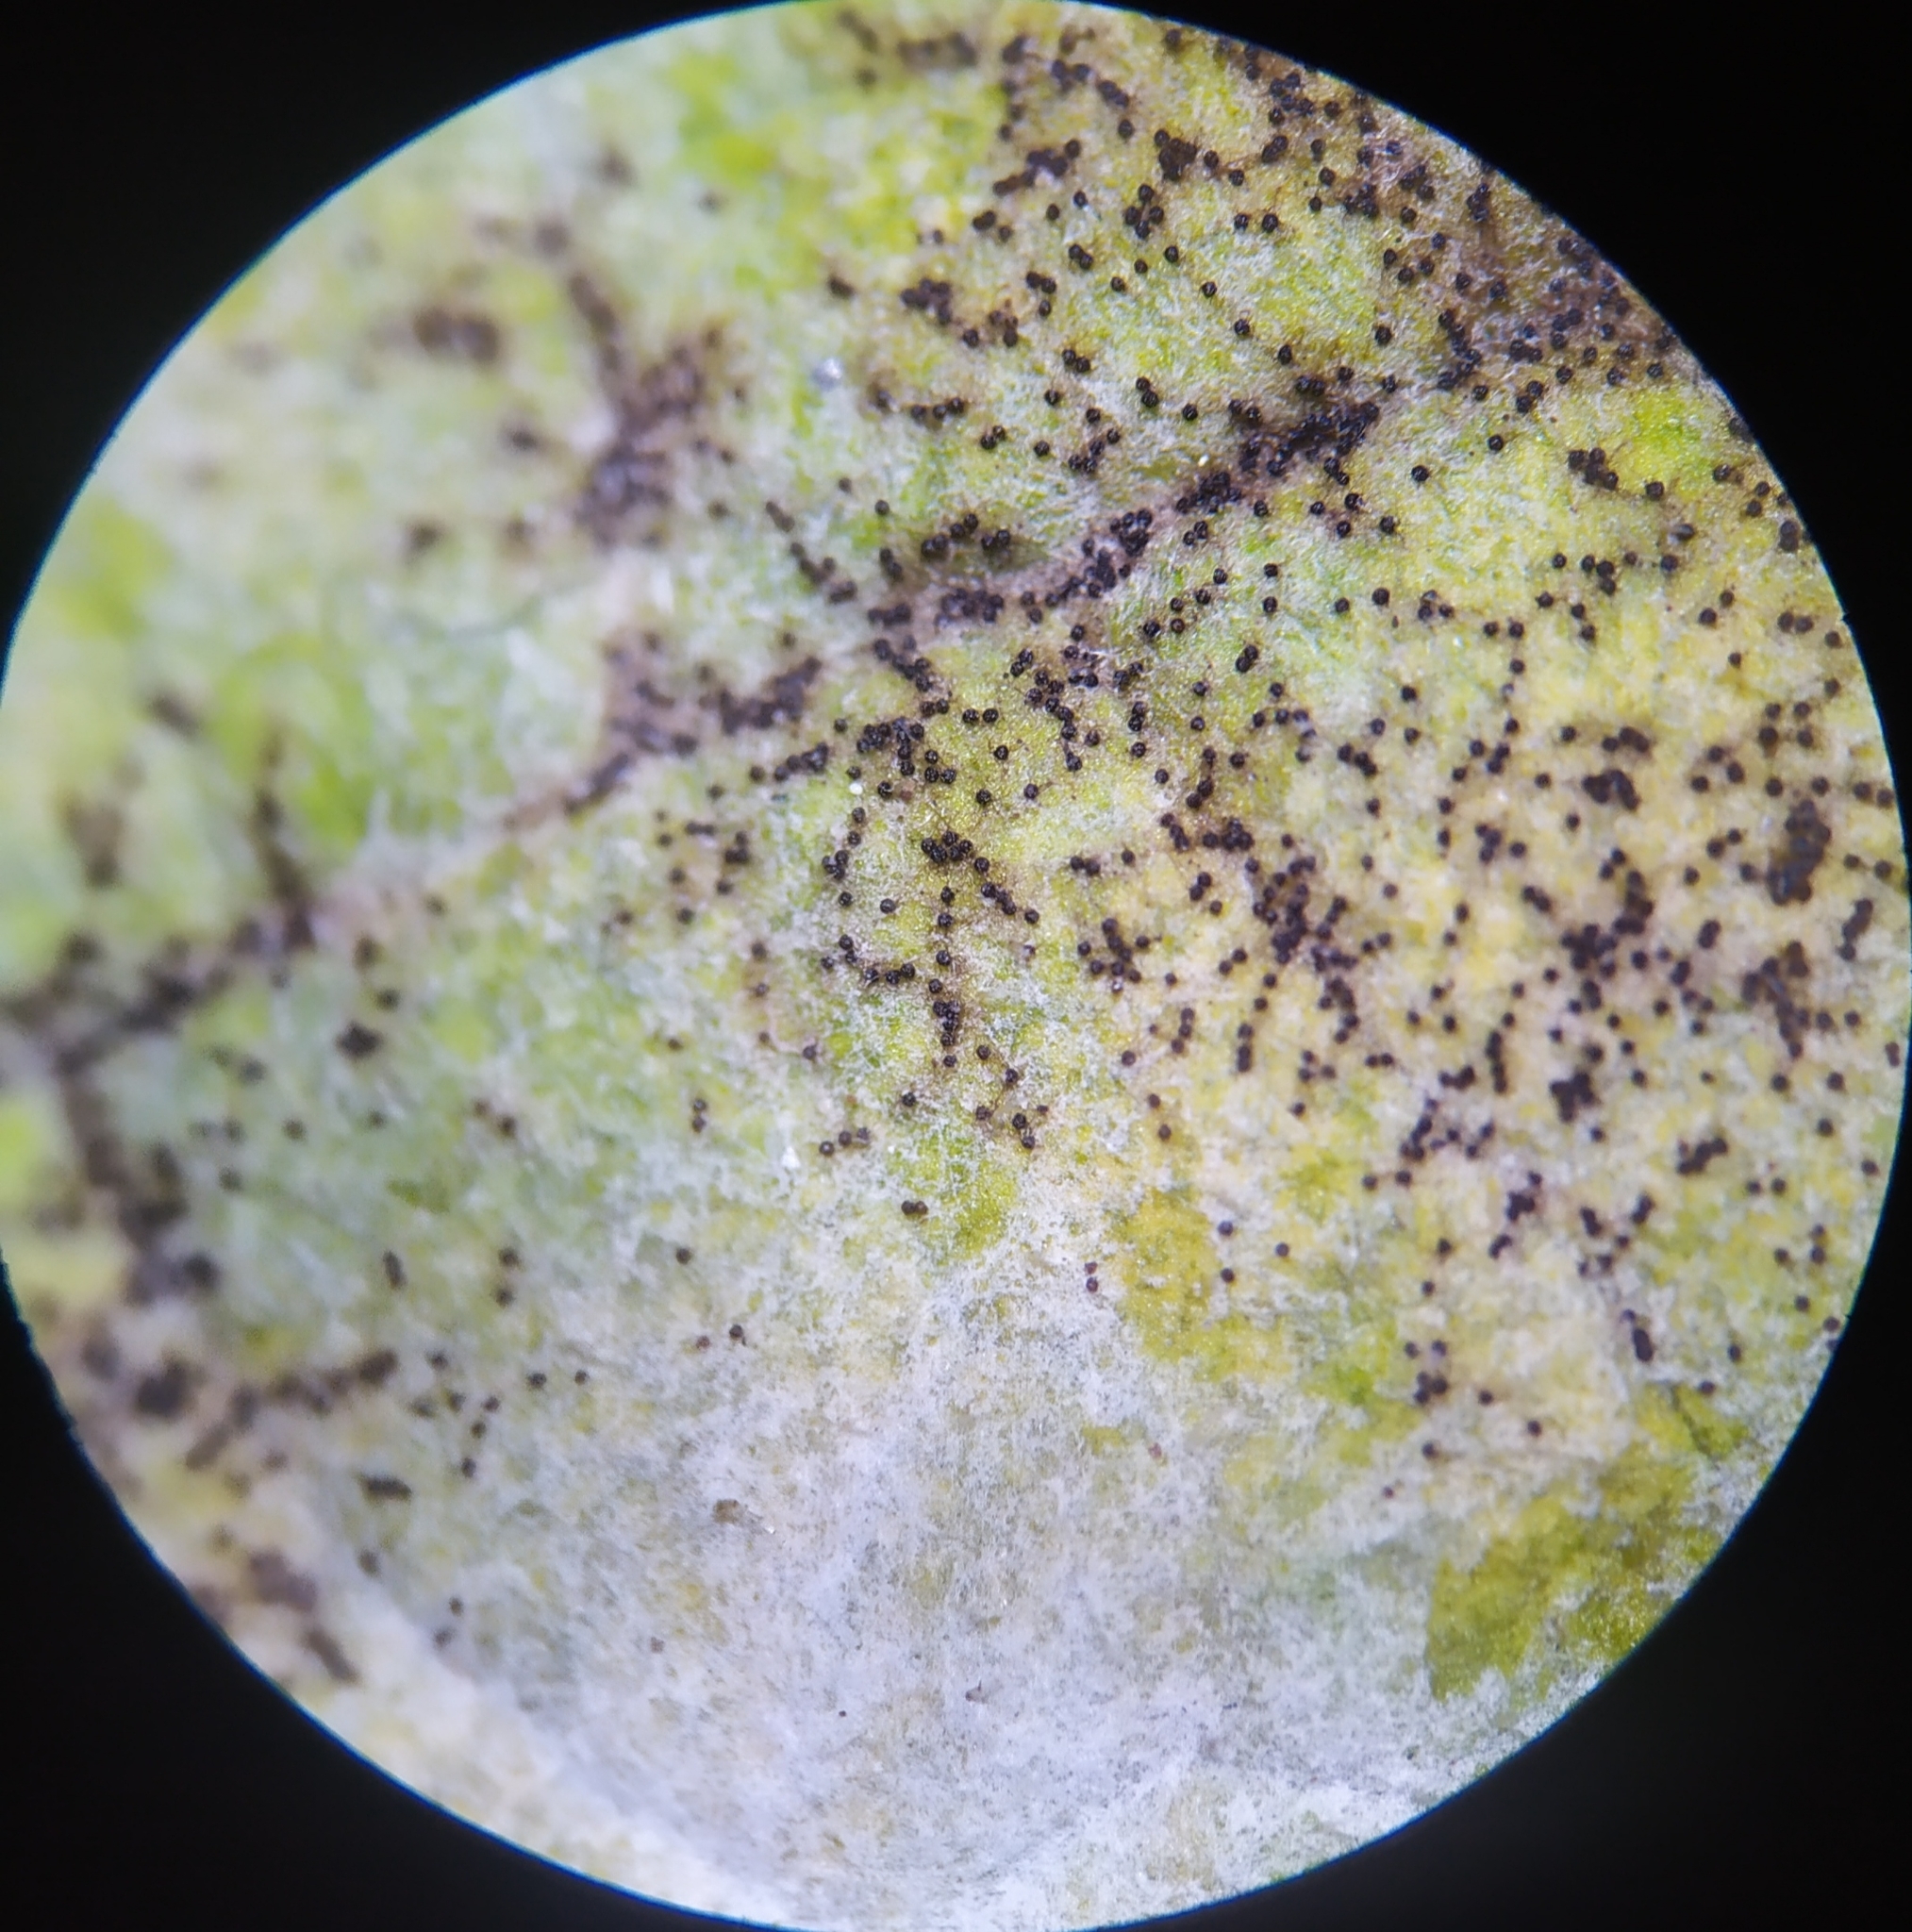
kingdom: Fungi
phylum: Ascomycota
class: Leotiomycetes
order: Helotiales
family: Erysiphaceae
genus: Podosphaera
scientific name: Podosphaera fusca
